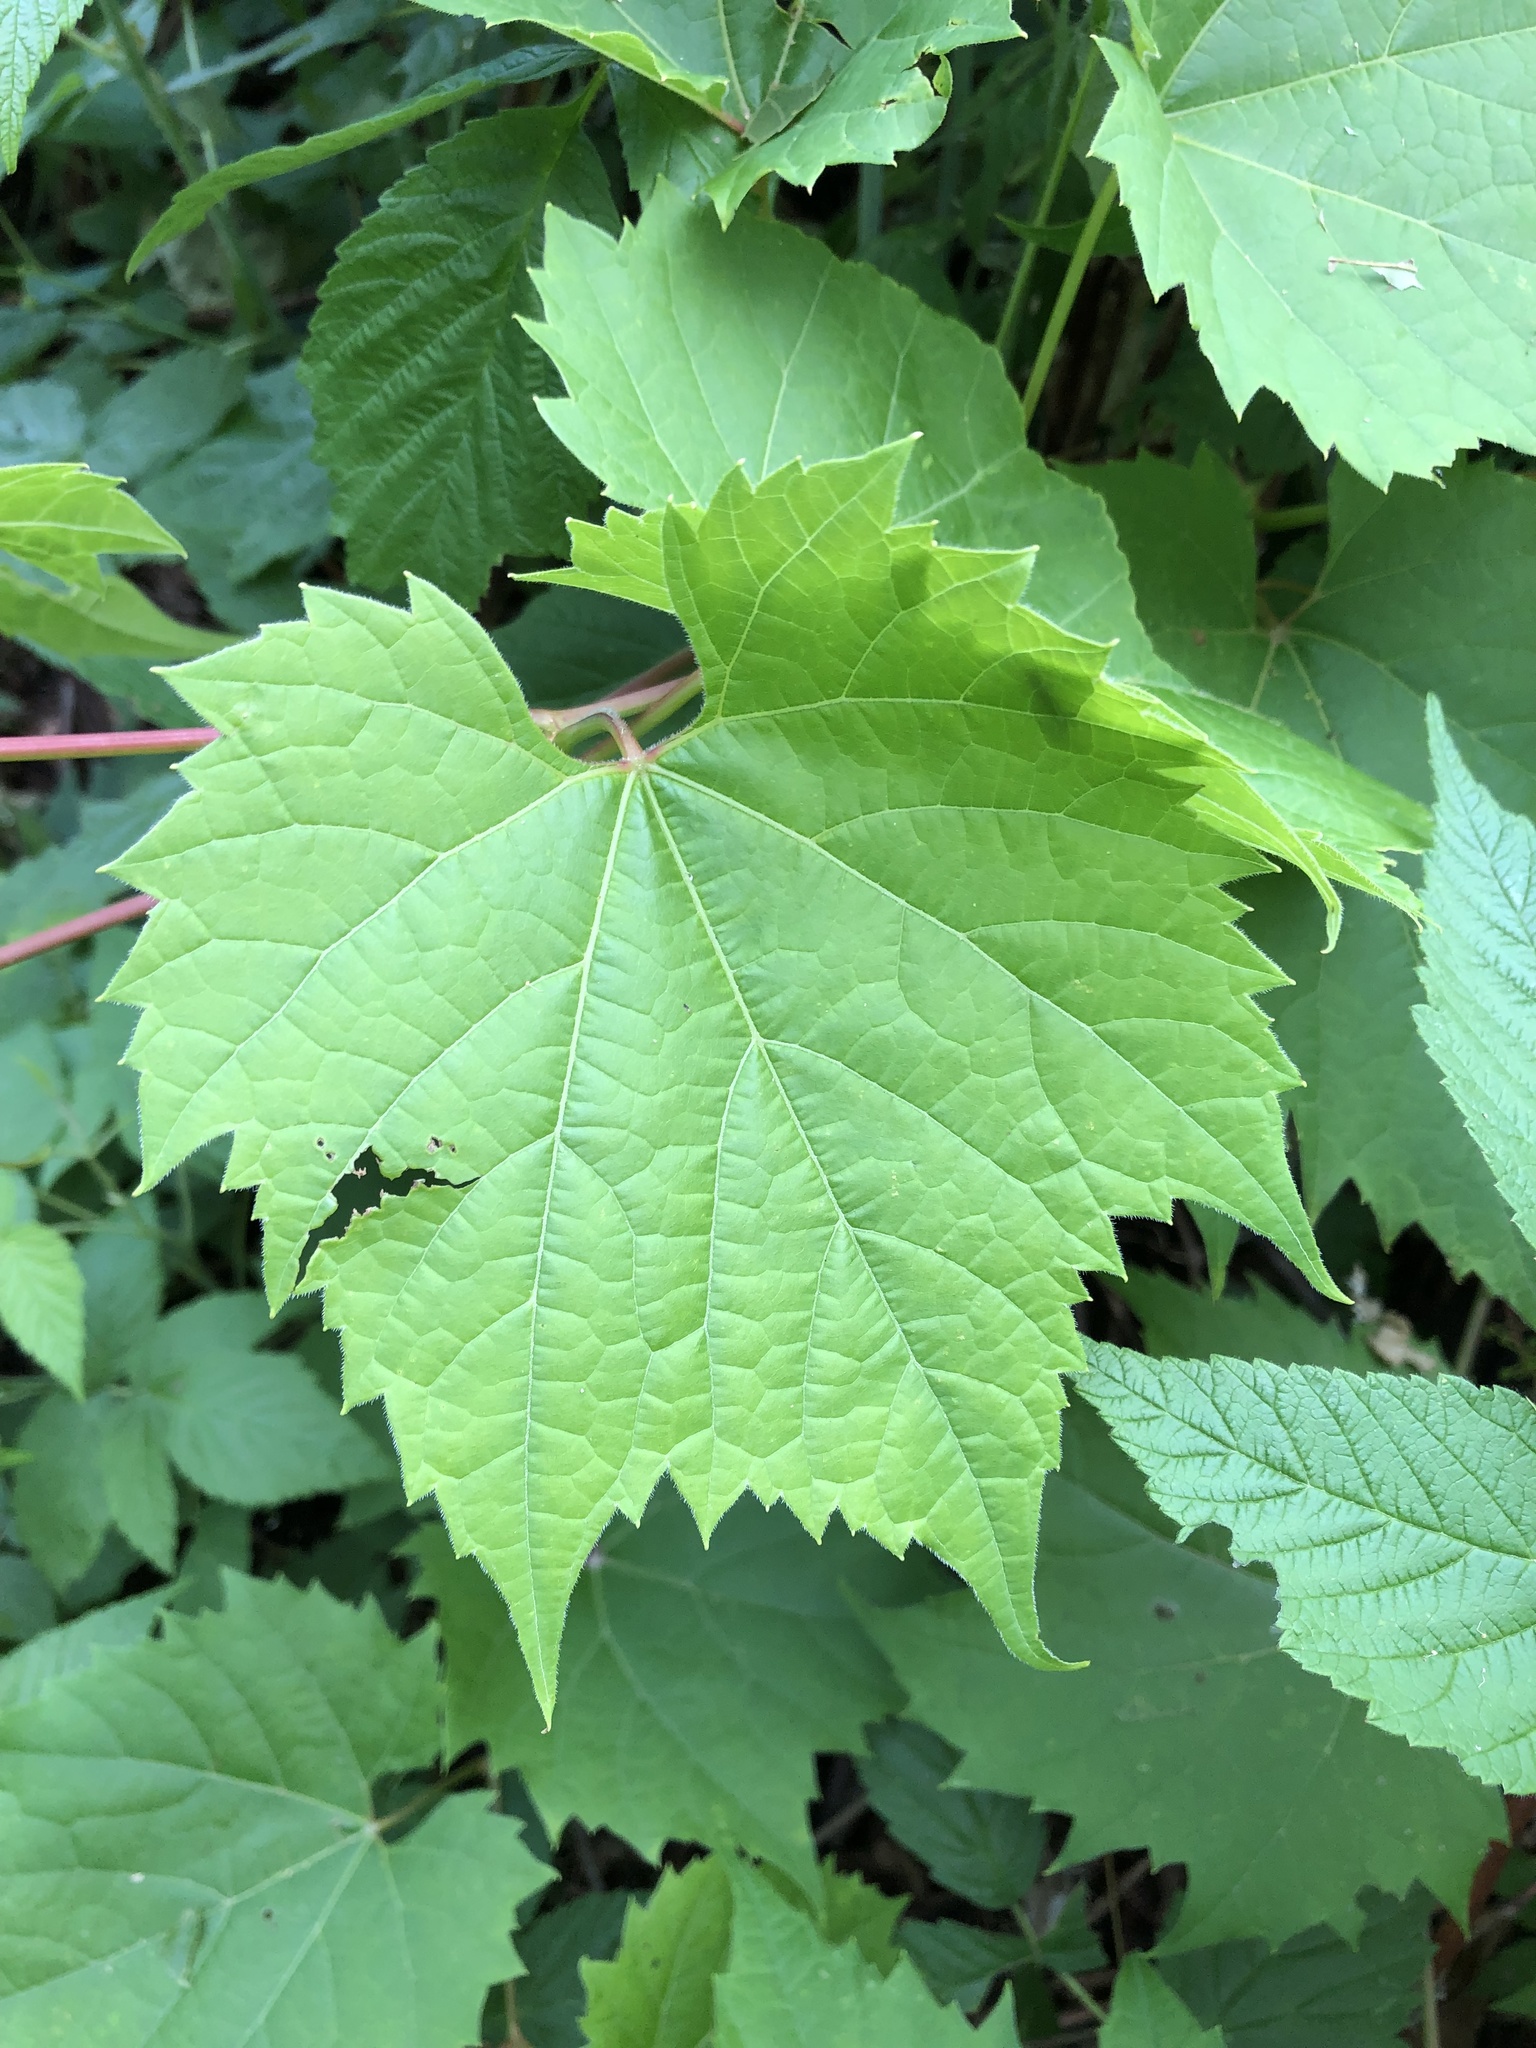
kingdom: Plantae
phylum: Tracheophyta
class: Magnoliopsida
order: Vitales
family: Vitaceae
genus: Vitis
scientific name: Vitis riparia
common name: Frost grape
